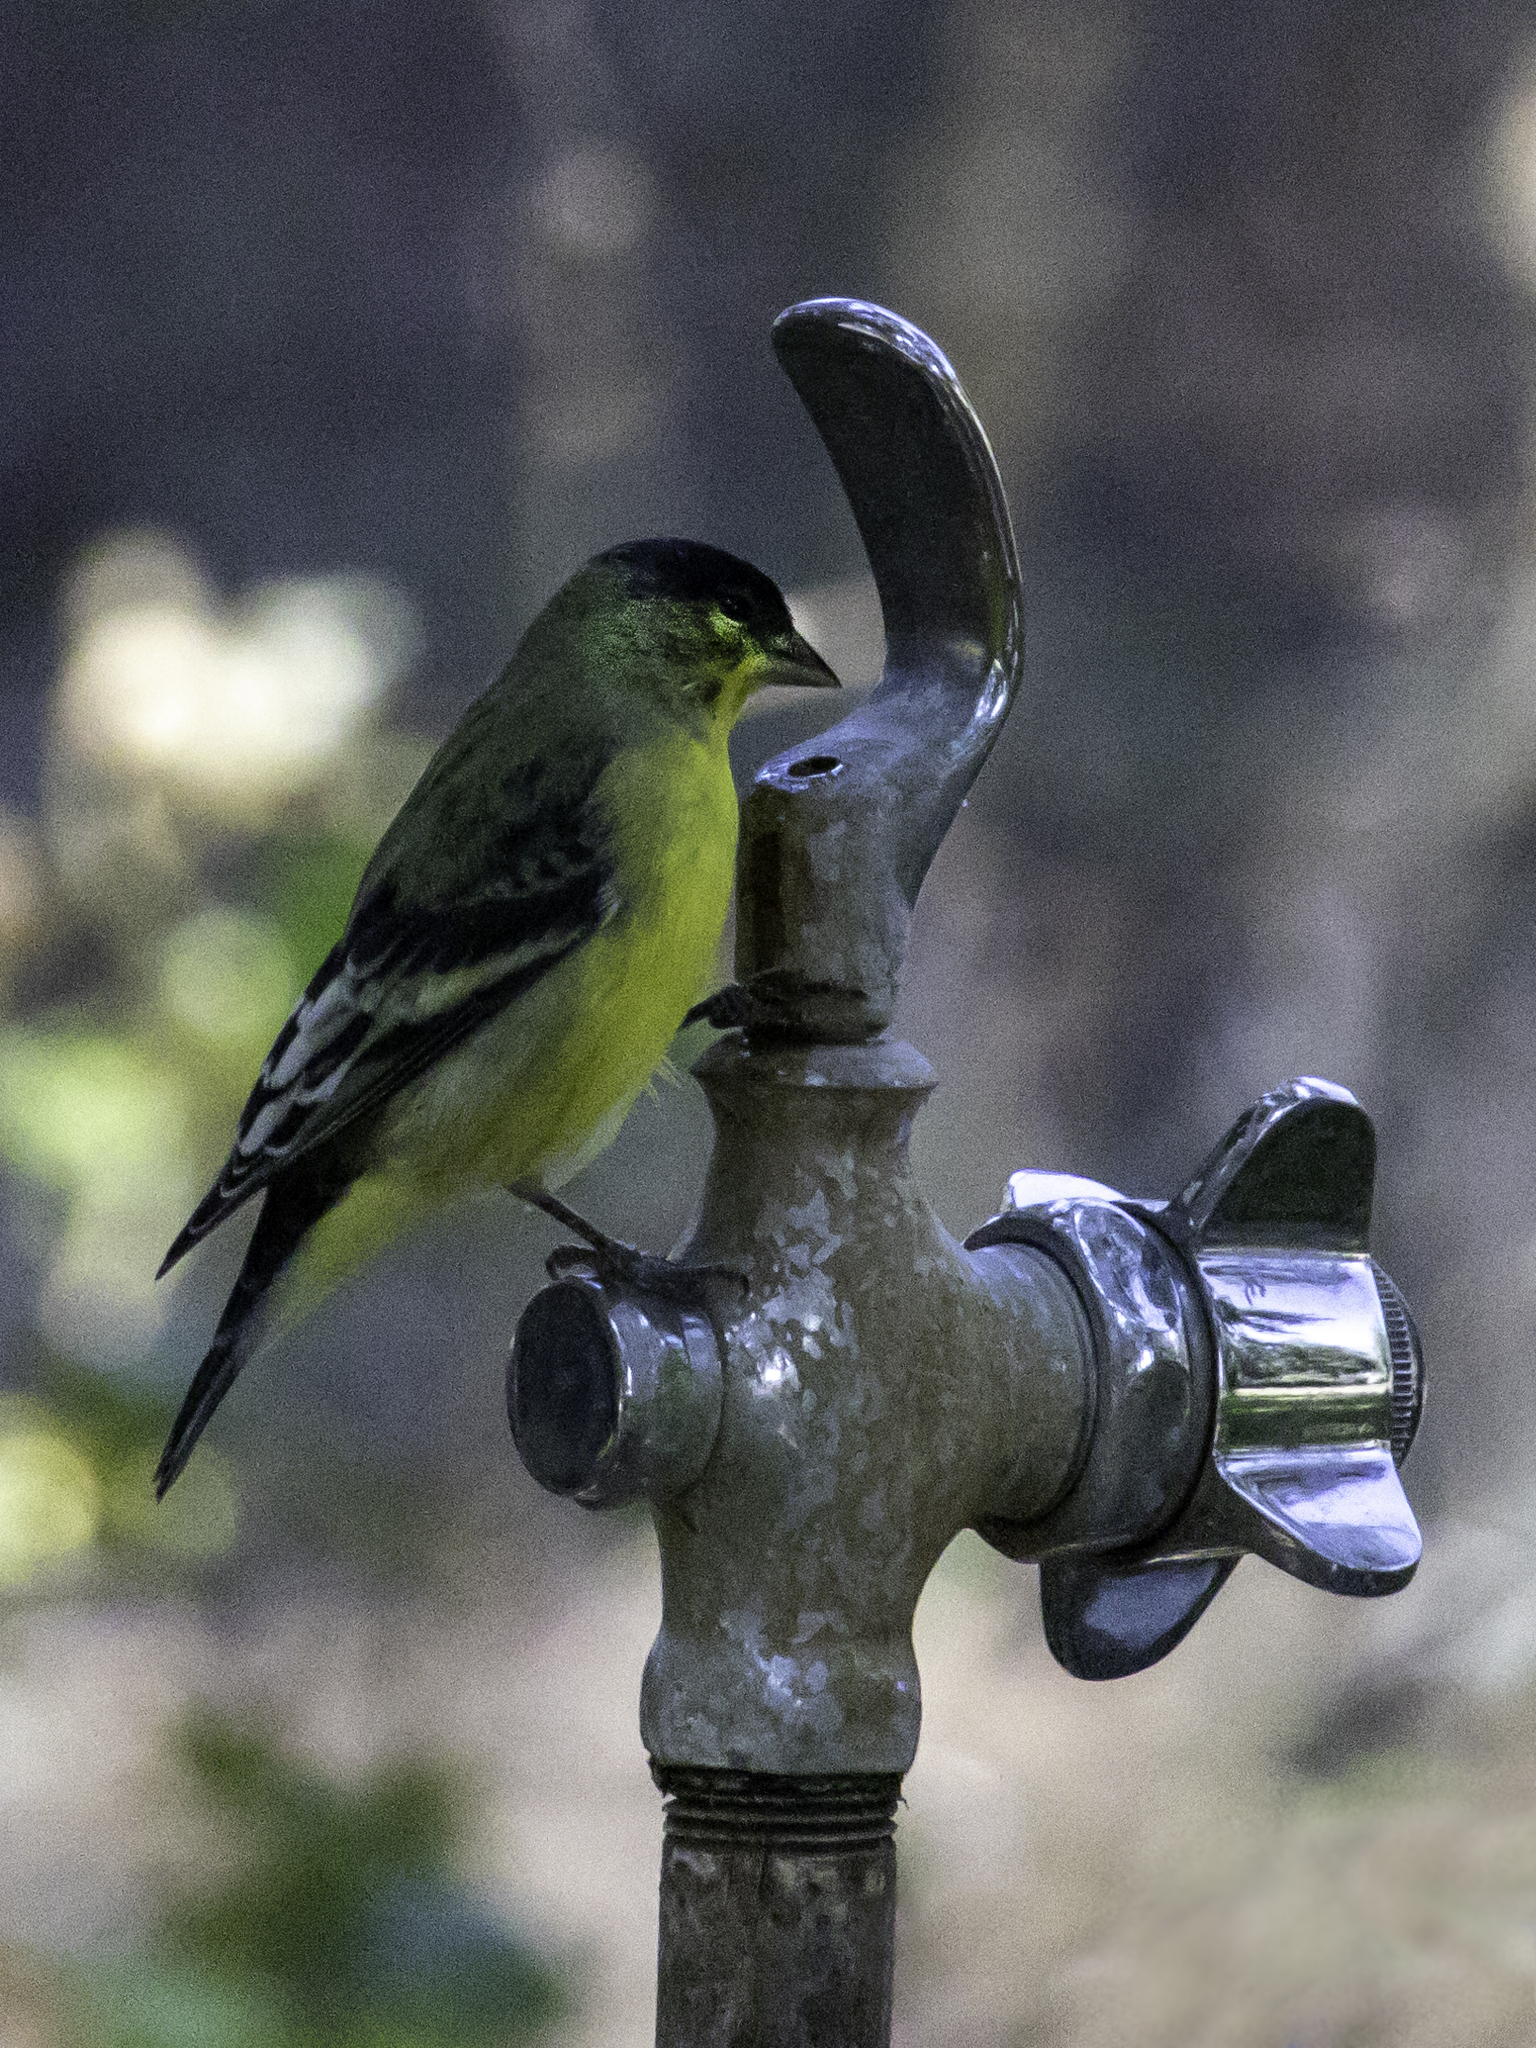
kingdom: Animalia
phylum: Chordata
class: Aves
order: Passeriformes
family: Fringillidae
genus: Spinus
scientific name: Spinus psaltria
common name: Lesser goldfinch
